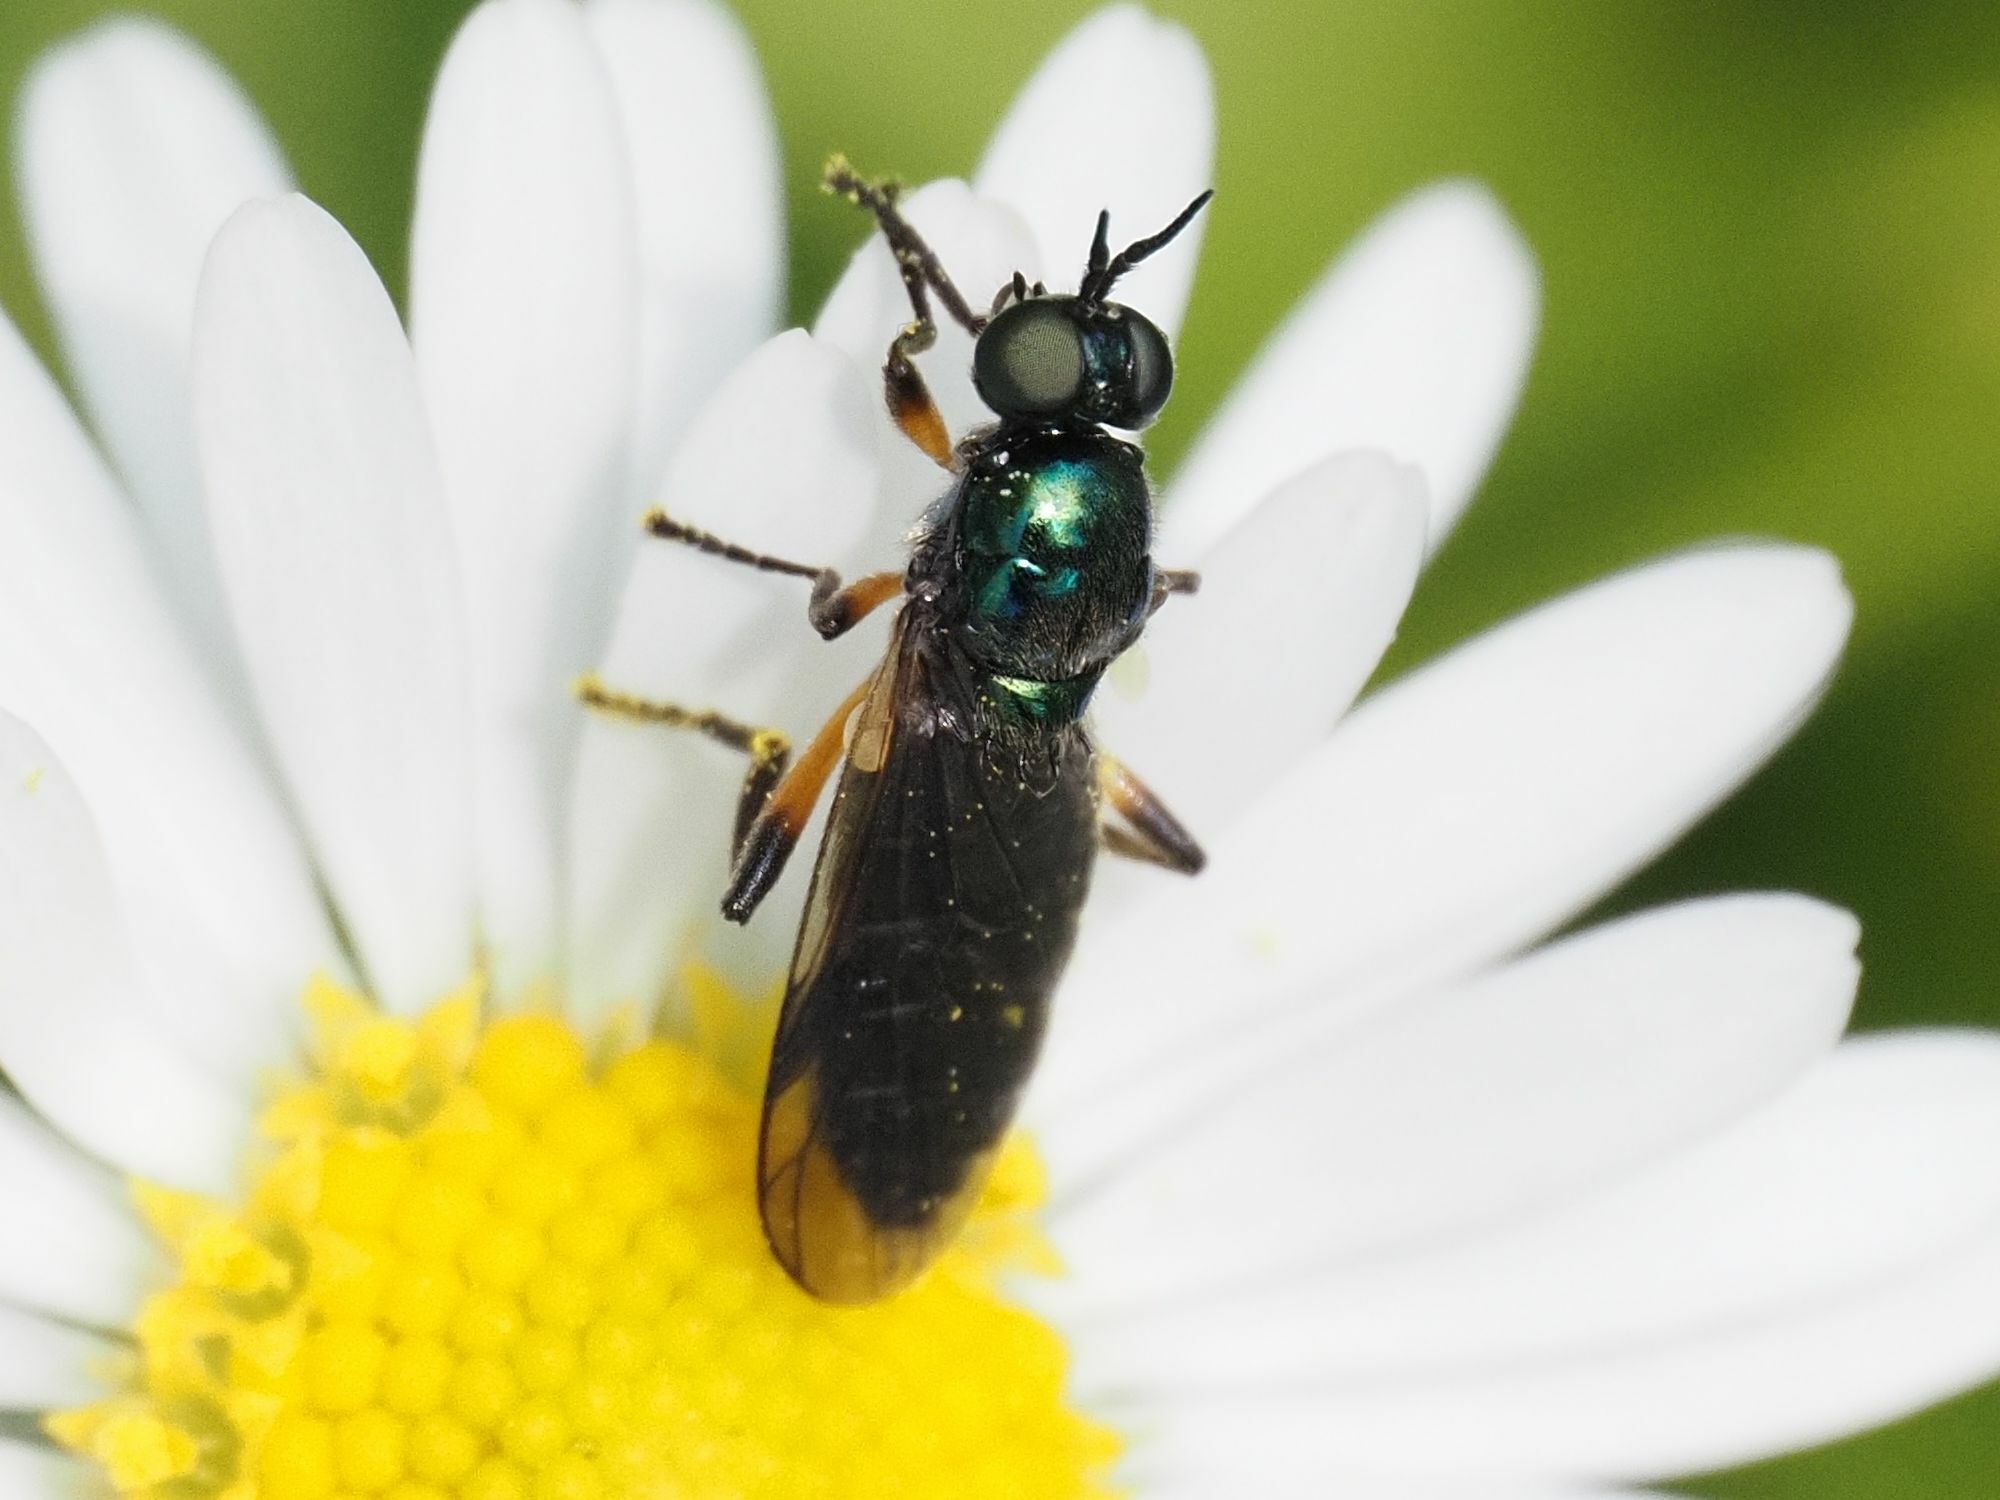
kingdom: Animalia
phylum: Arthropoda
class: Insecta
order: Diptera
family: Stratiomyidae
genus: Actina
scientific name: Actina chalybea
